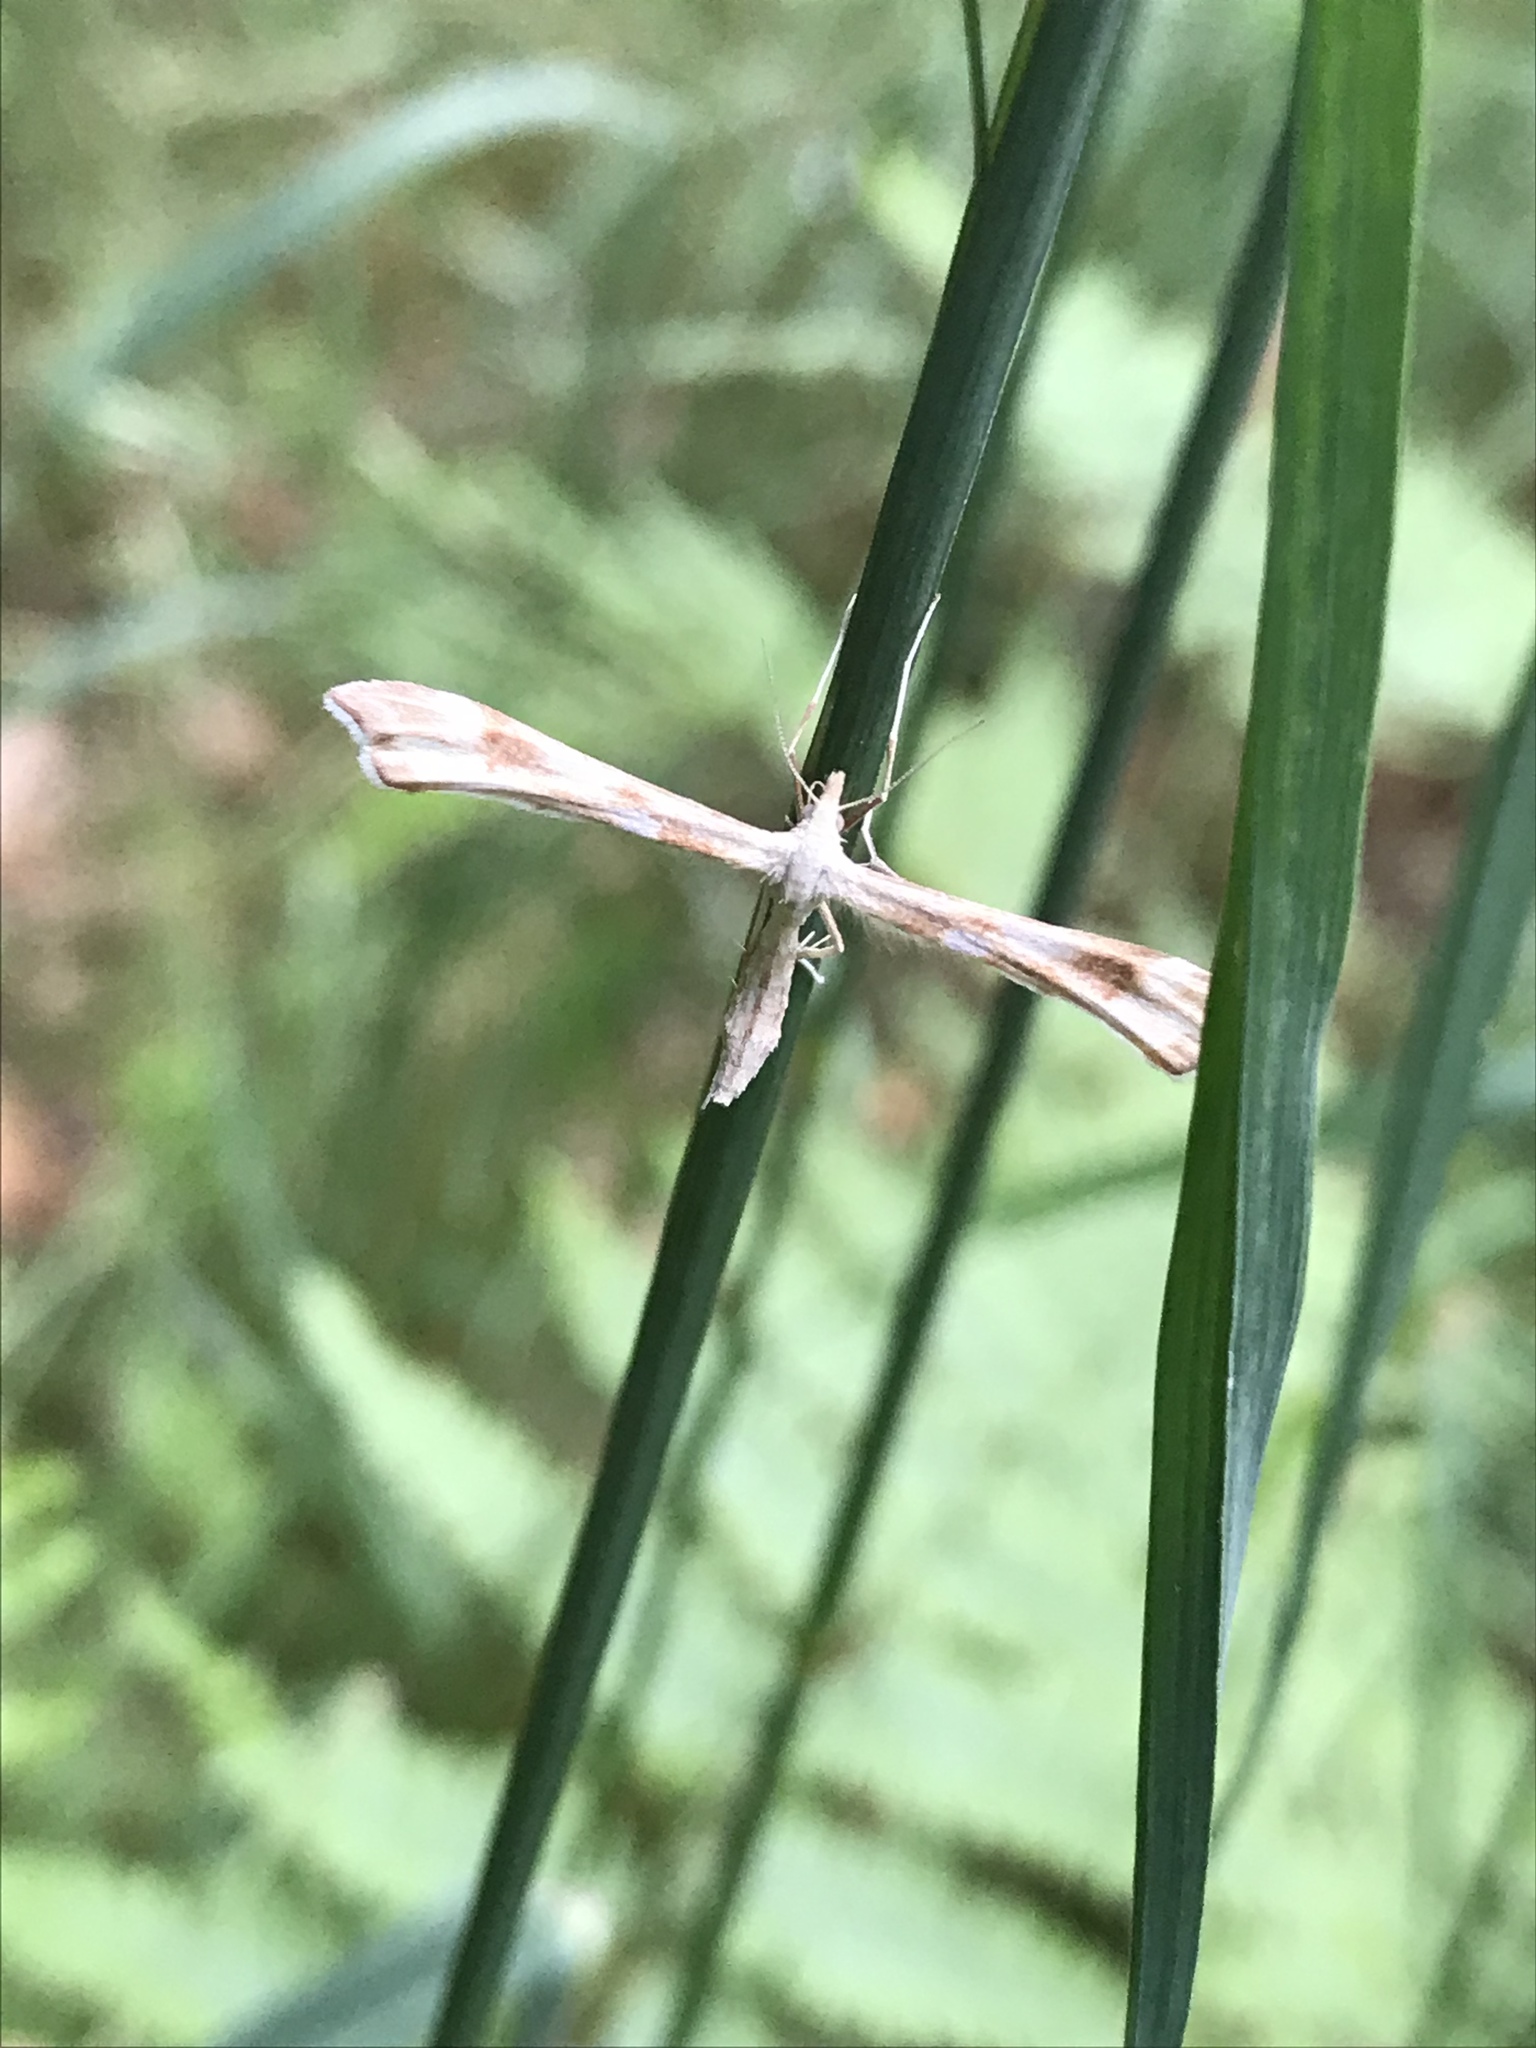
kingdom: Animalia
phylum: Arthropoda
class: Insecta
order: Lepidoptera
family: Pterophoridae
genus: Gillmeria
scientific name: Gillmeria pallidactyla
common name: Yarrow plume
